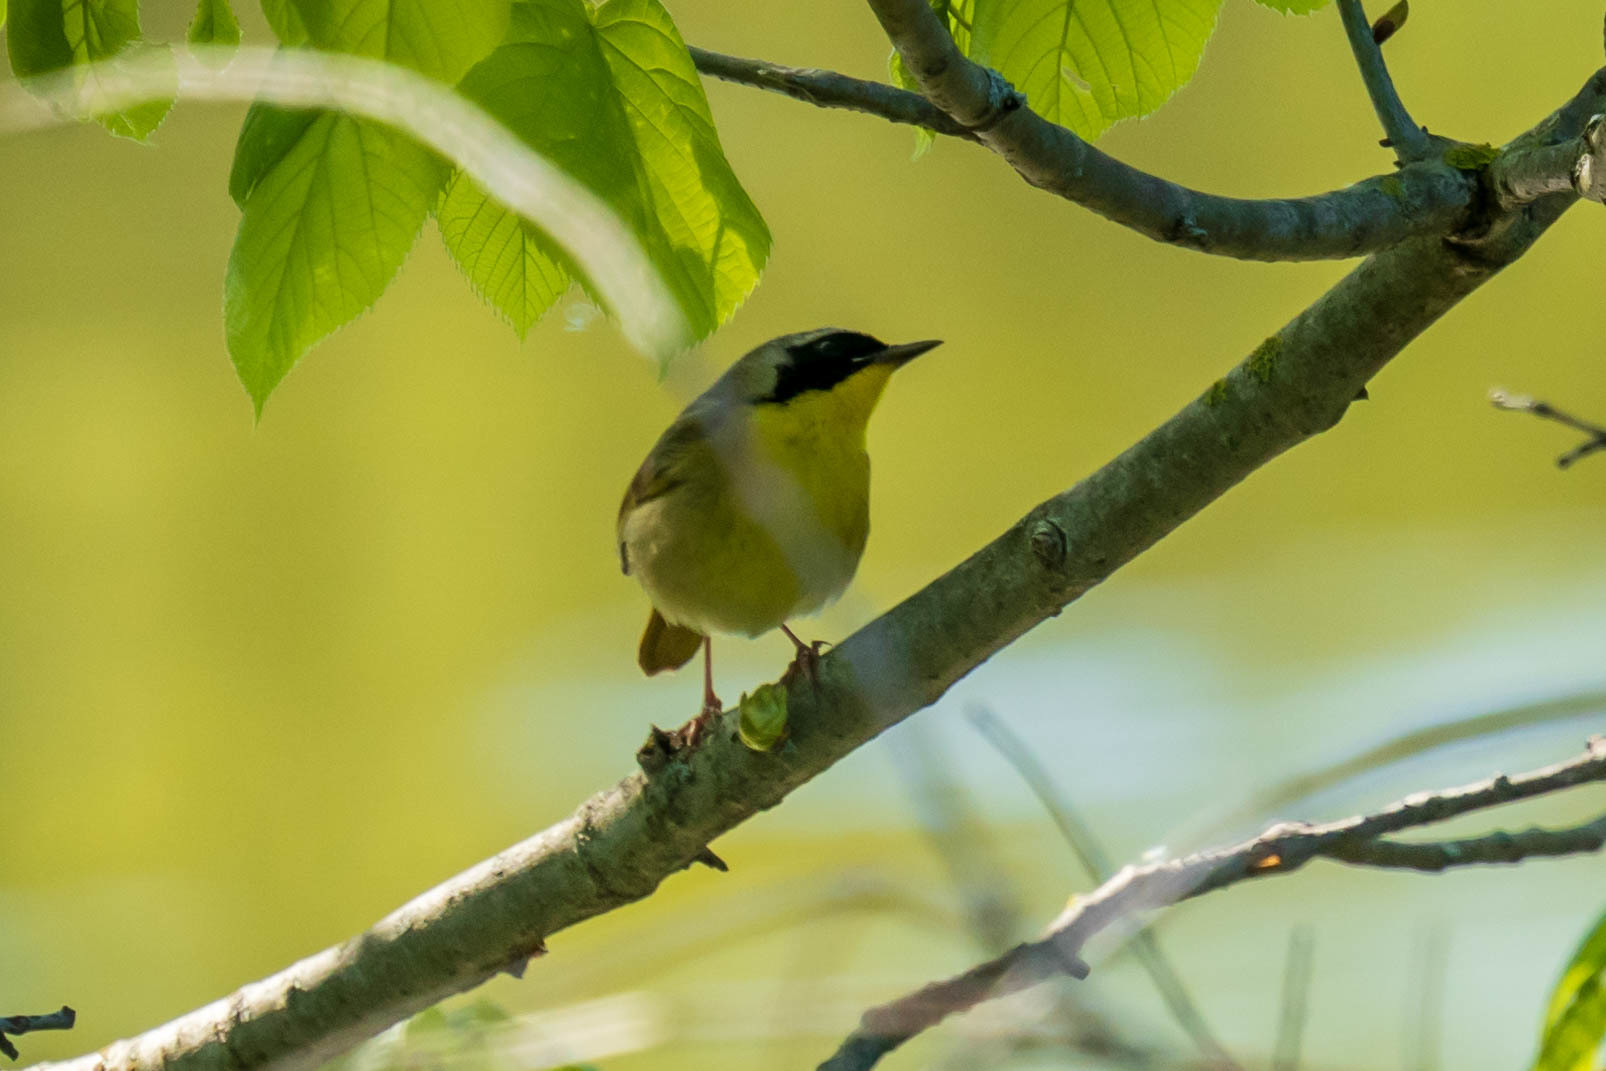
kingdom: Animalia
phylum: Chordata
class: Aves
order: Passeriformes
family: Parulidae
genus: Geothlypis
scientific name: Geothlypis trichas
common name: Common yellowthroat
